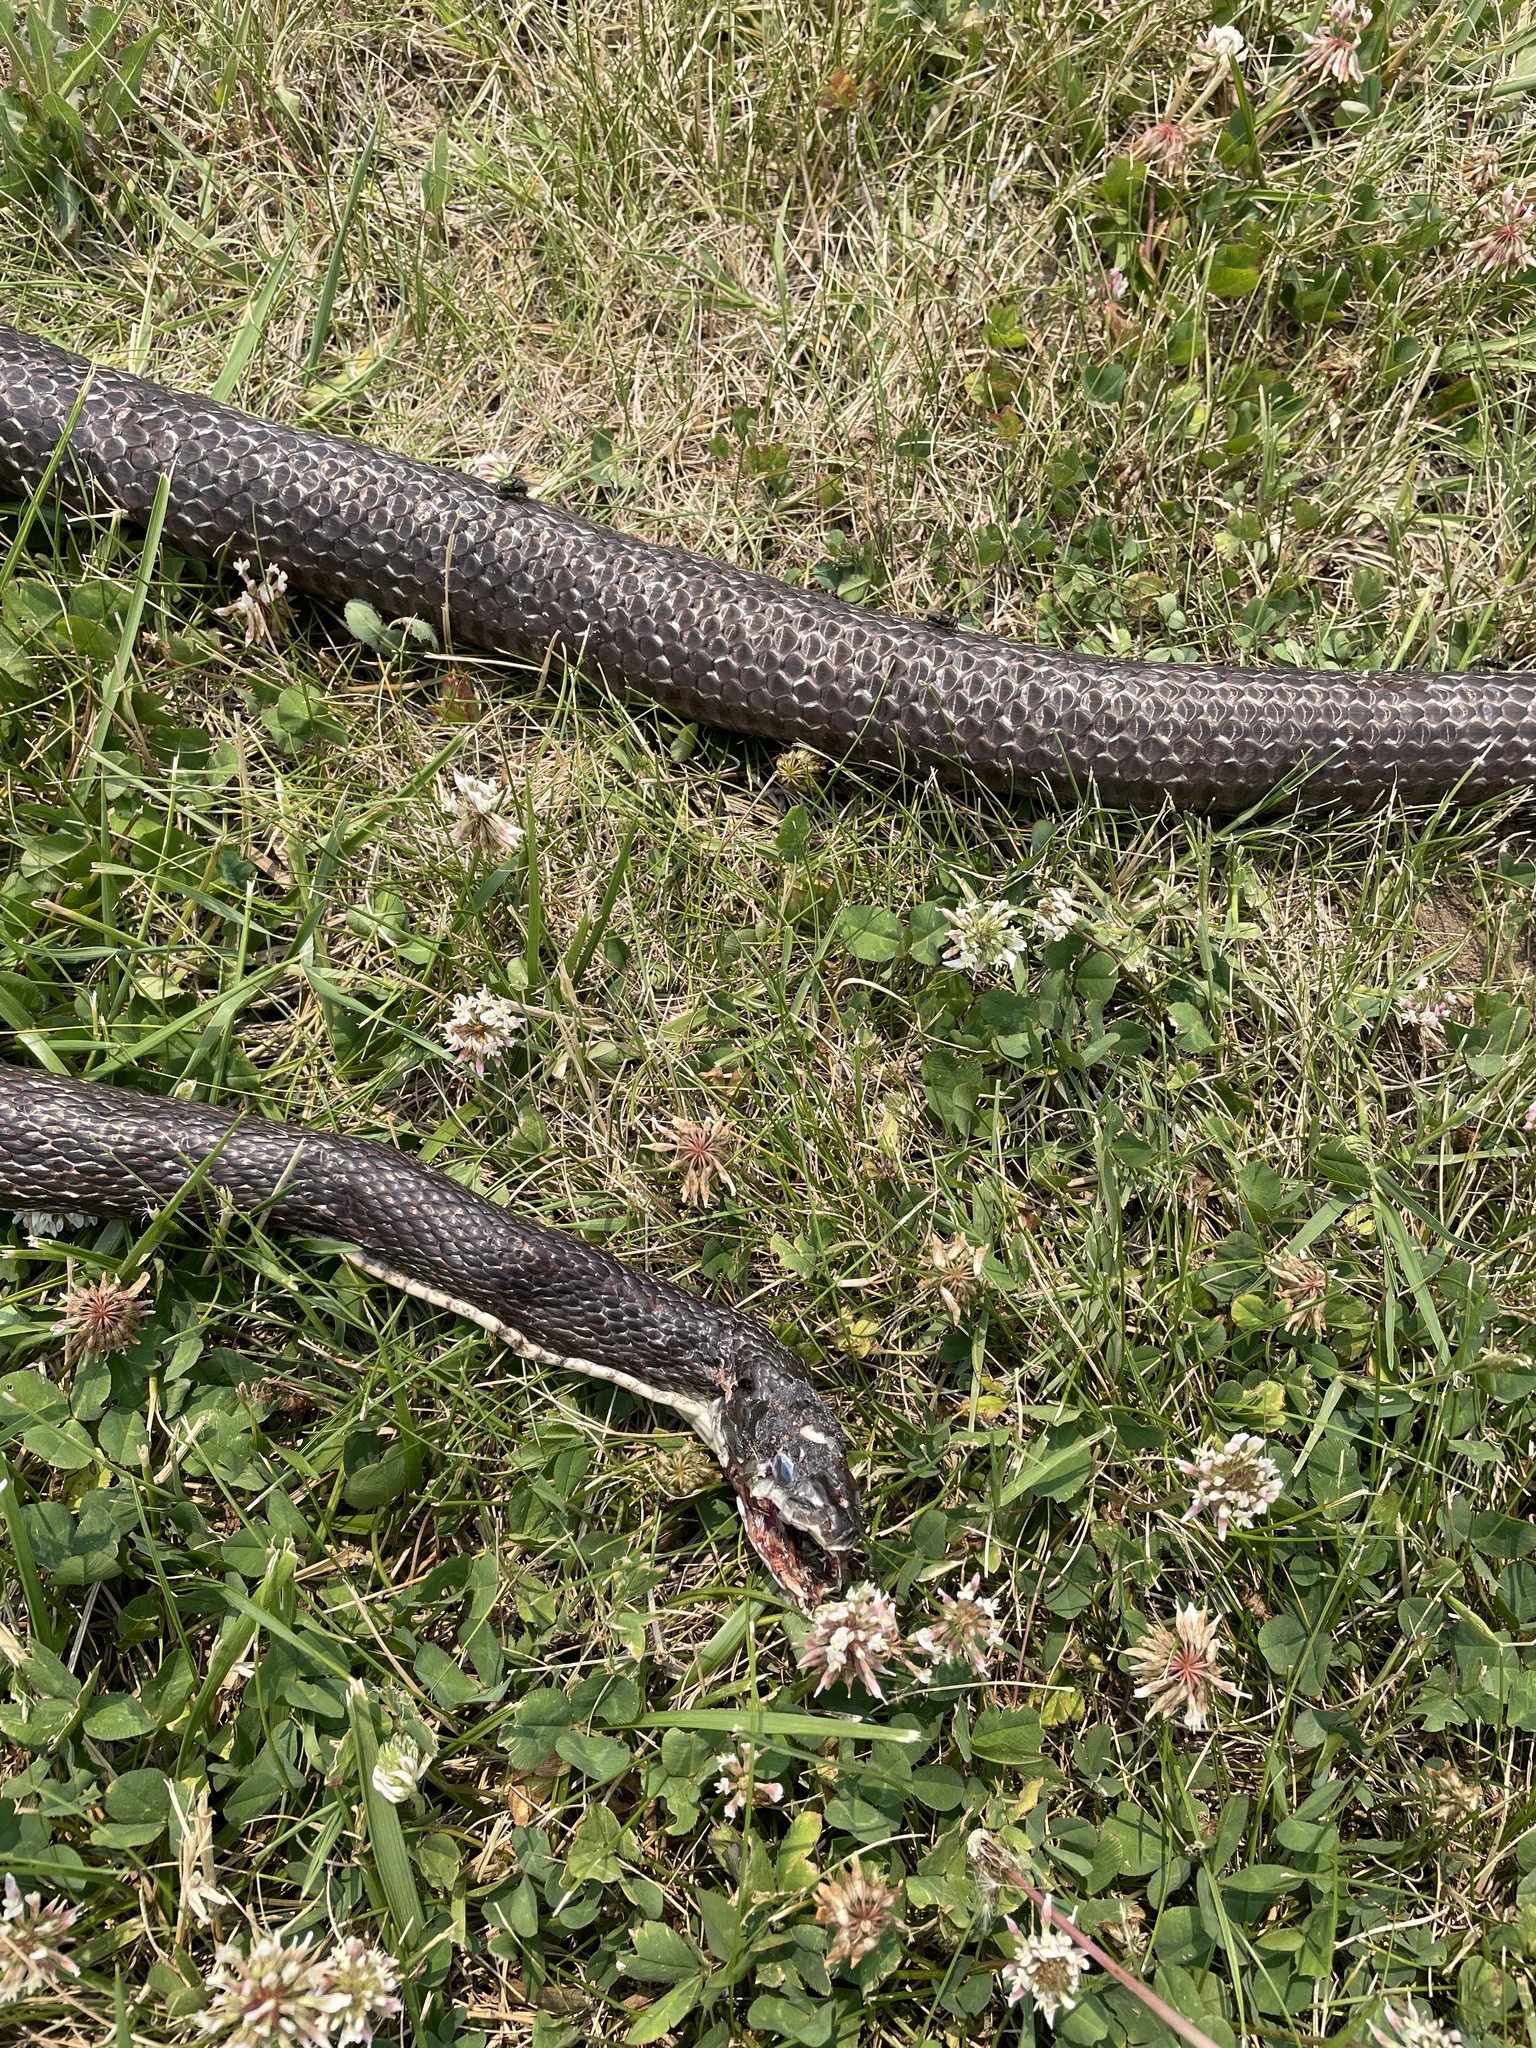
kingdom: Animalia
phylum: Chordata
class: Squamata
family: Colubridae
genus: Pantherophis
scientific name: Pantherophis
